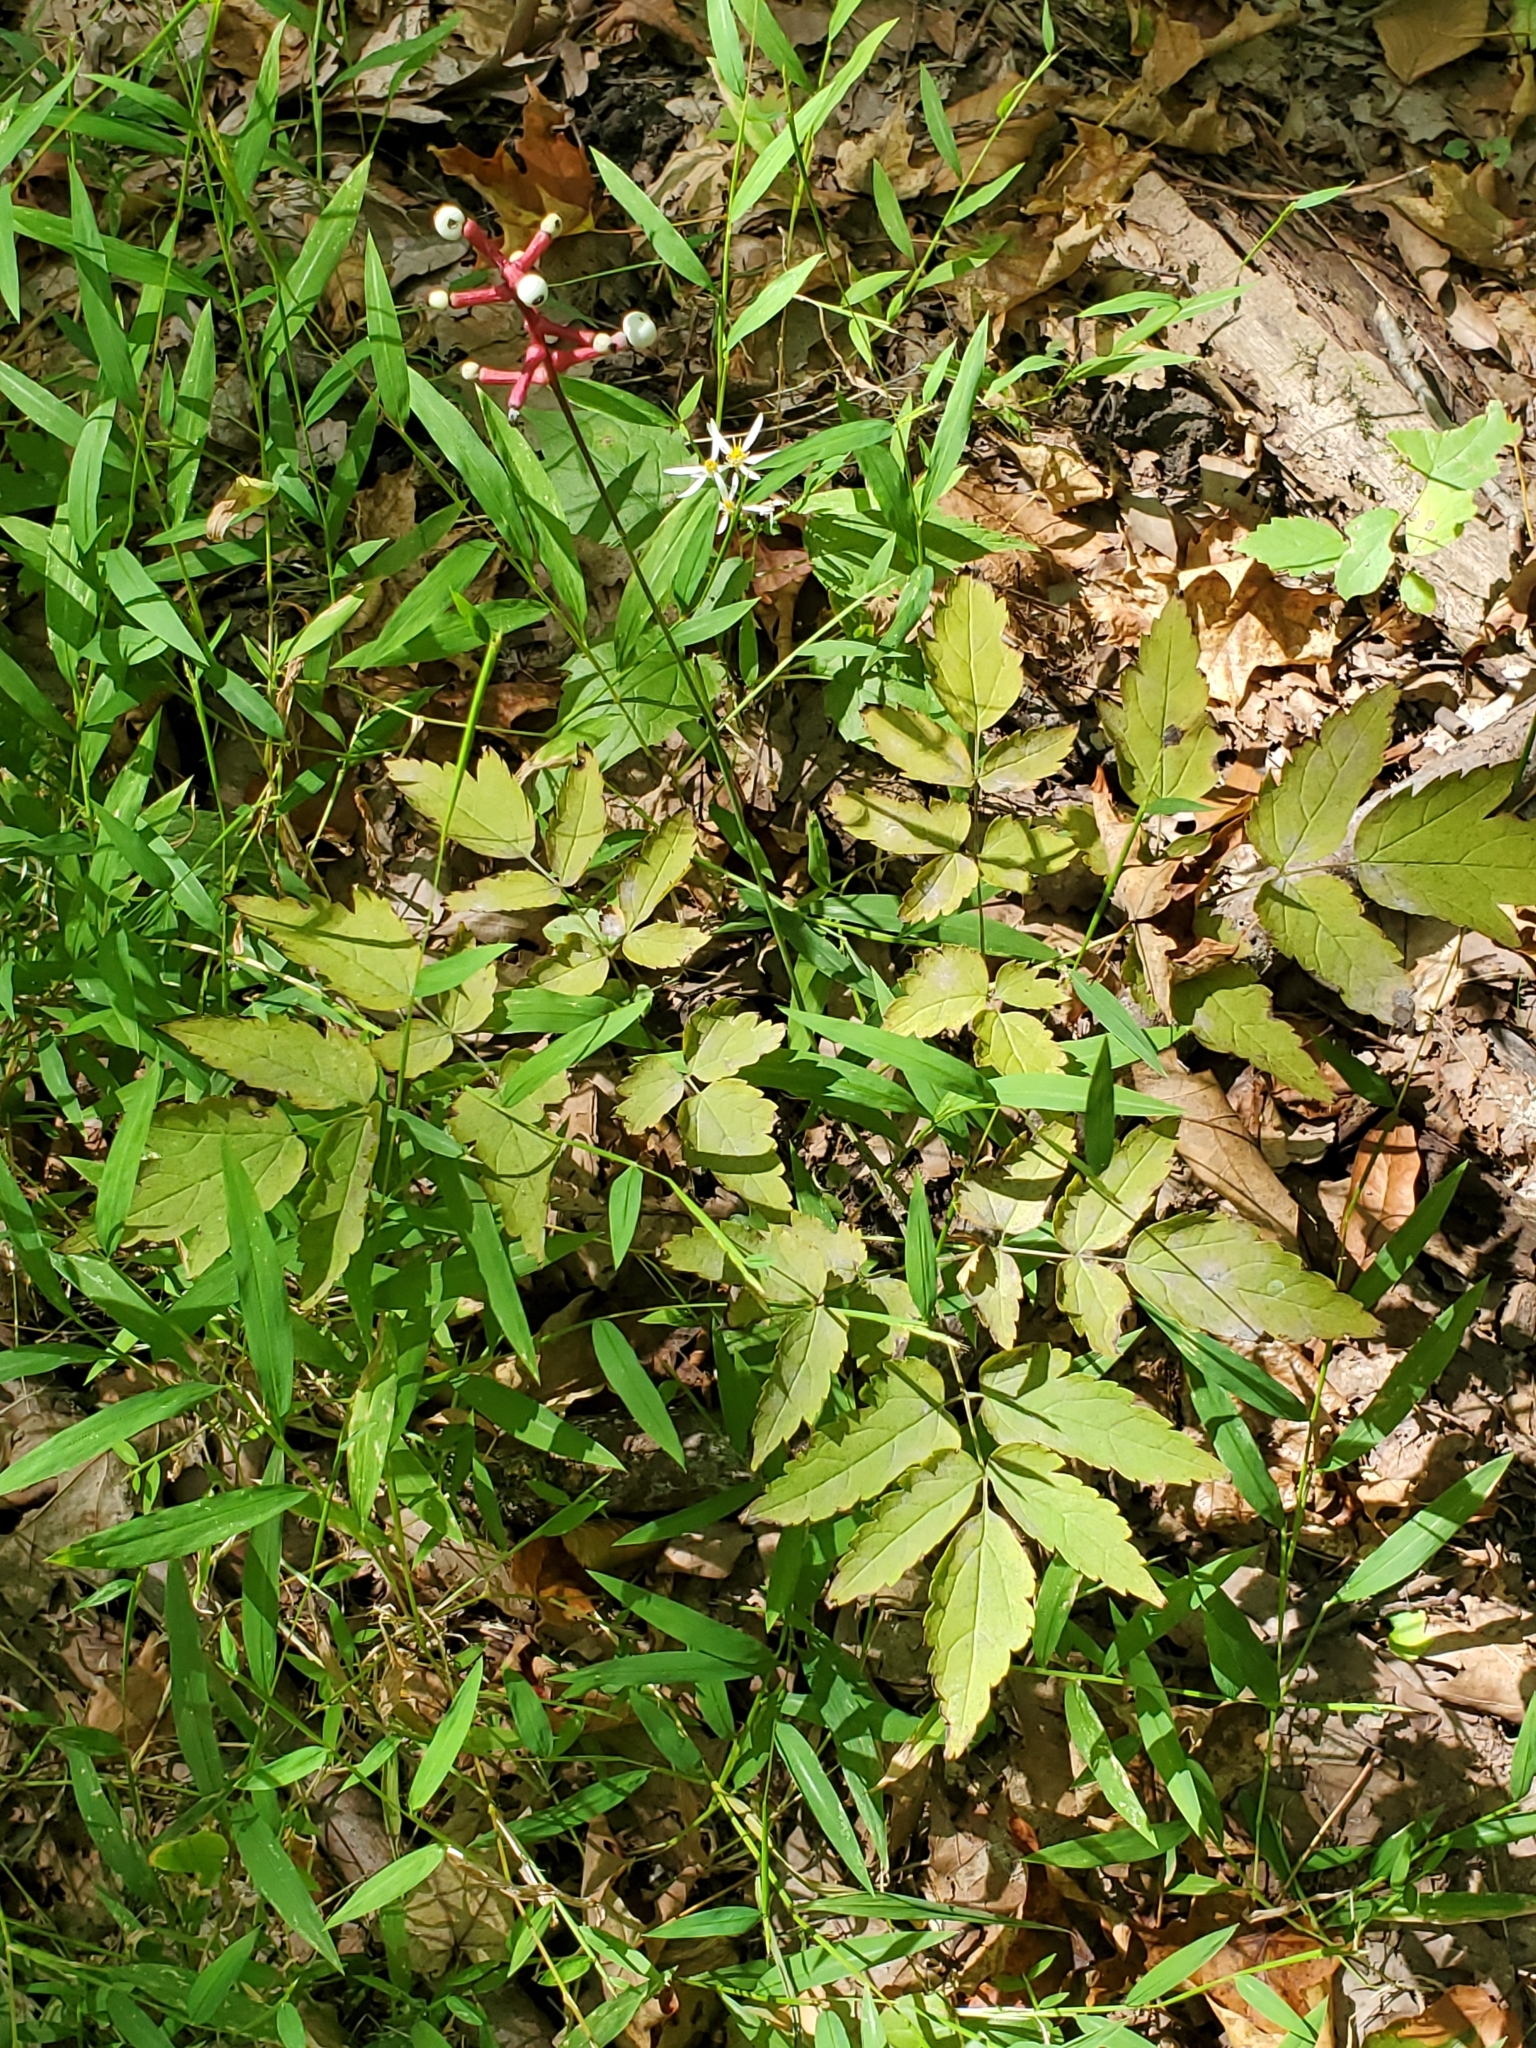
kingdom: Plantae
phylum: Tracheophyta
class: Magnoliopsida
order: Ranunculales
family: Ranunculaceae
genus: Actaea
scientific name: Actaea pachypoda
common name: Doll's-eyes
